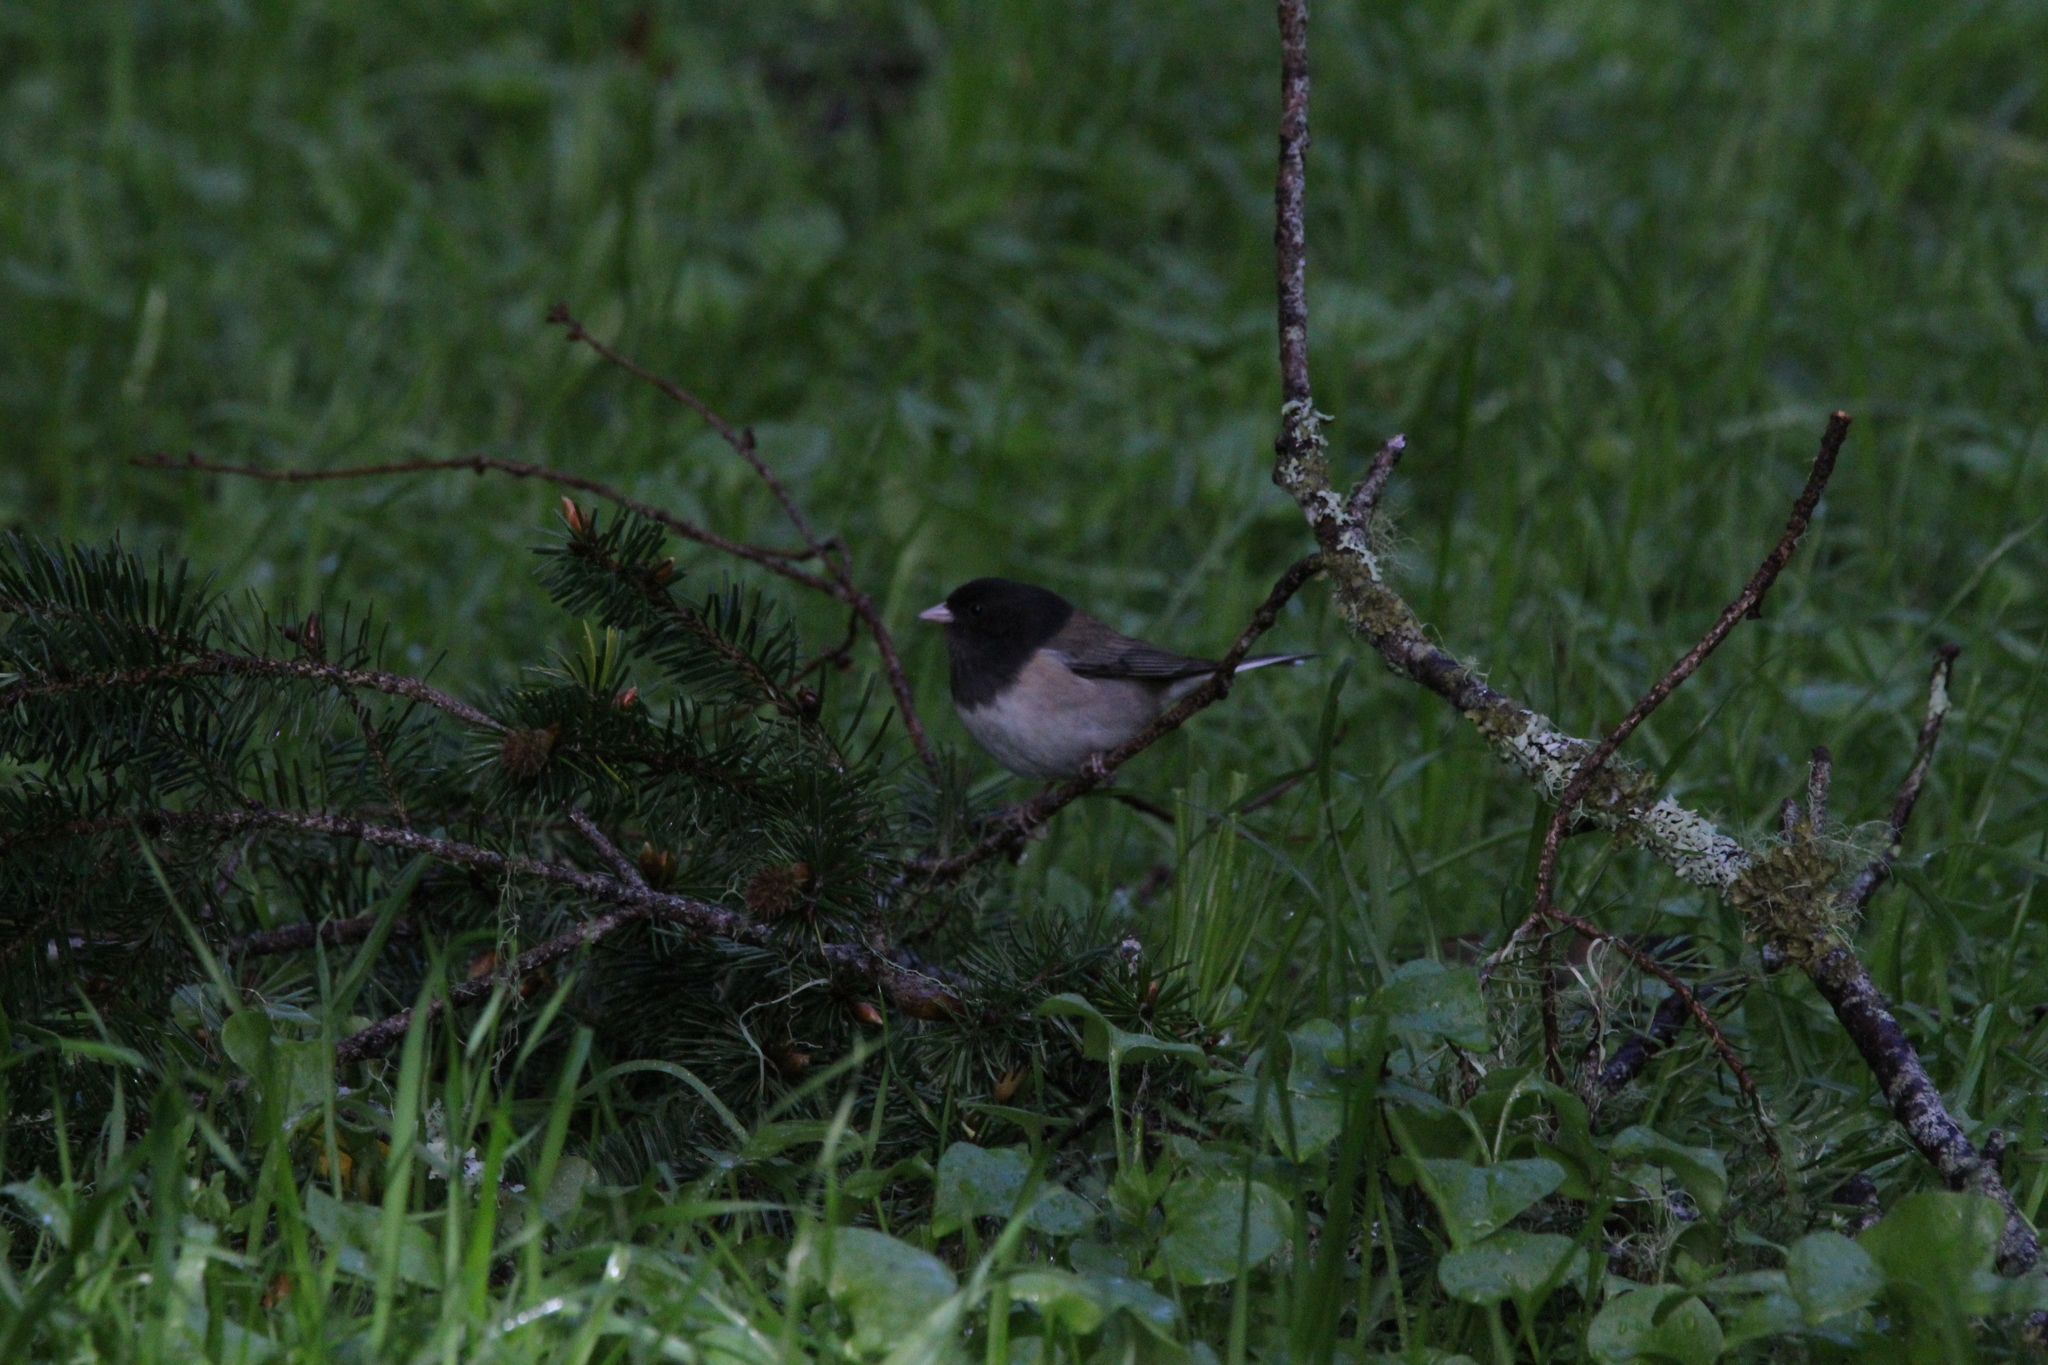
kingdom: Animalia
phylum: Chordata
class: Aves
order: Passeriformes
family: Passerellidae
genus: Junco
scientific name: Junco hyemalis
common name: Dark-eyed junco
